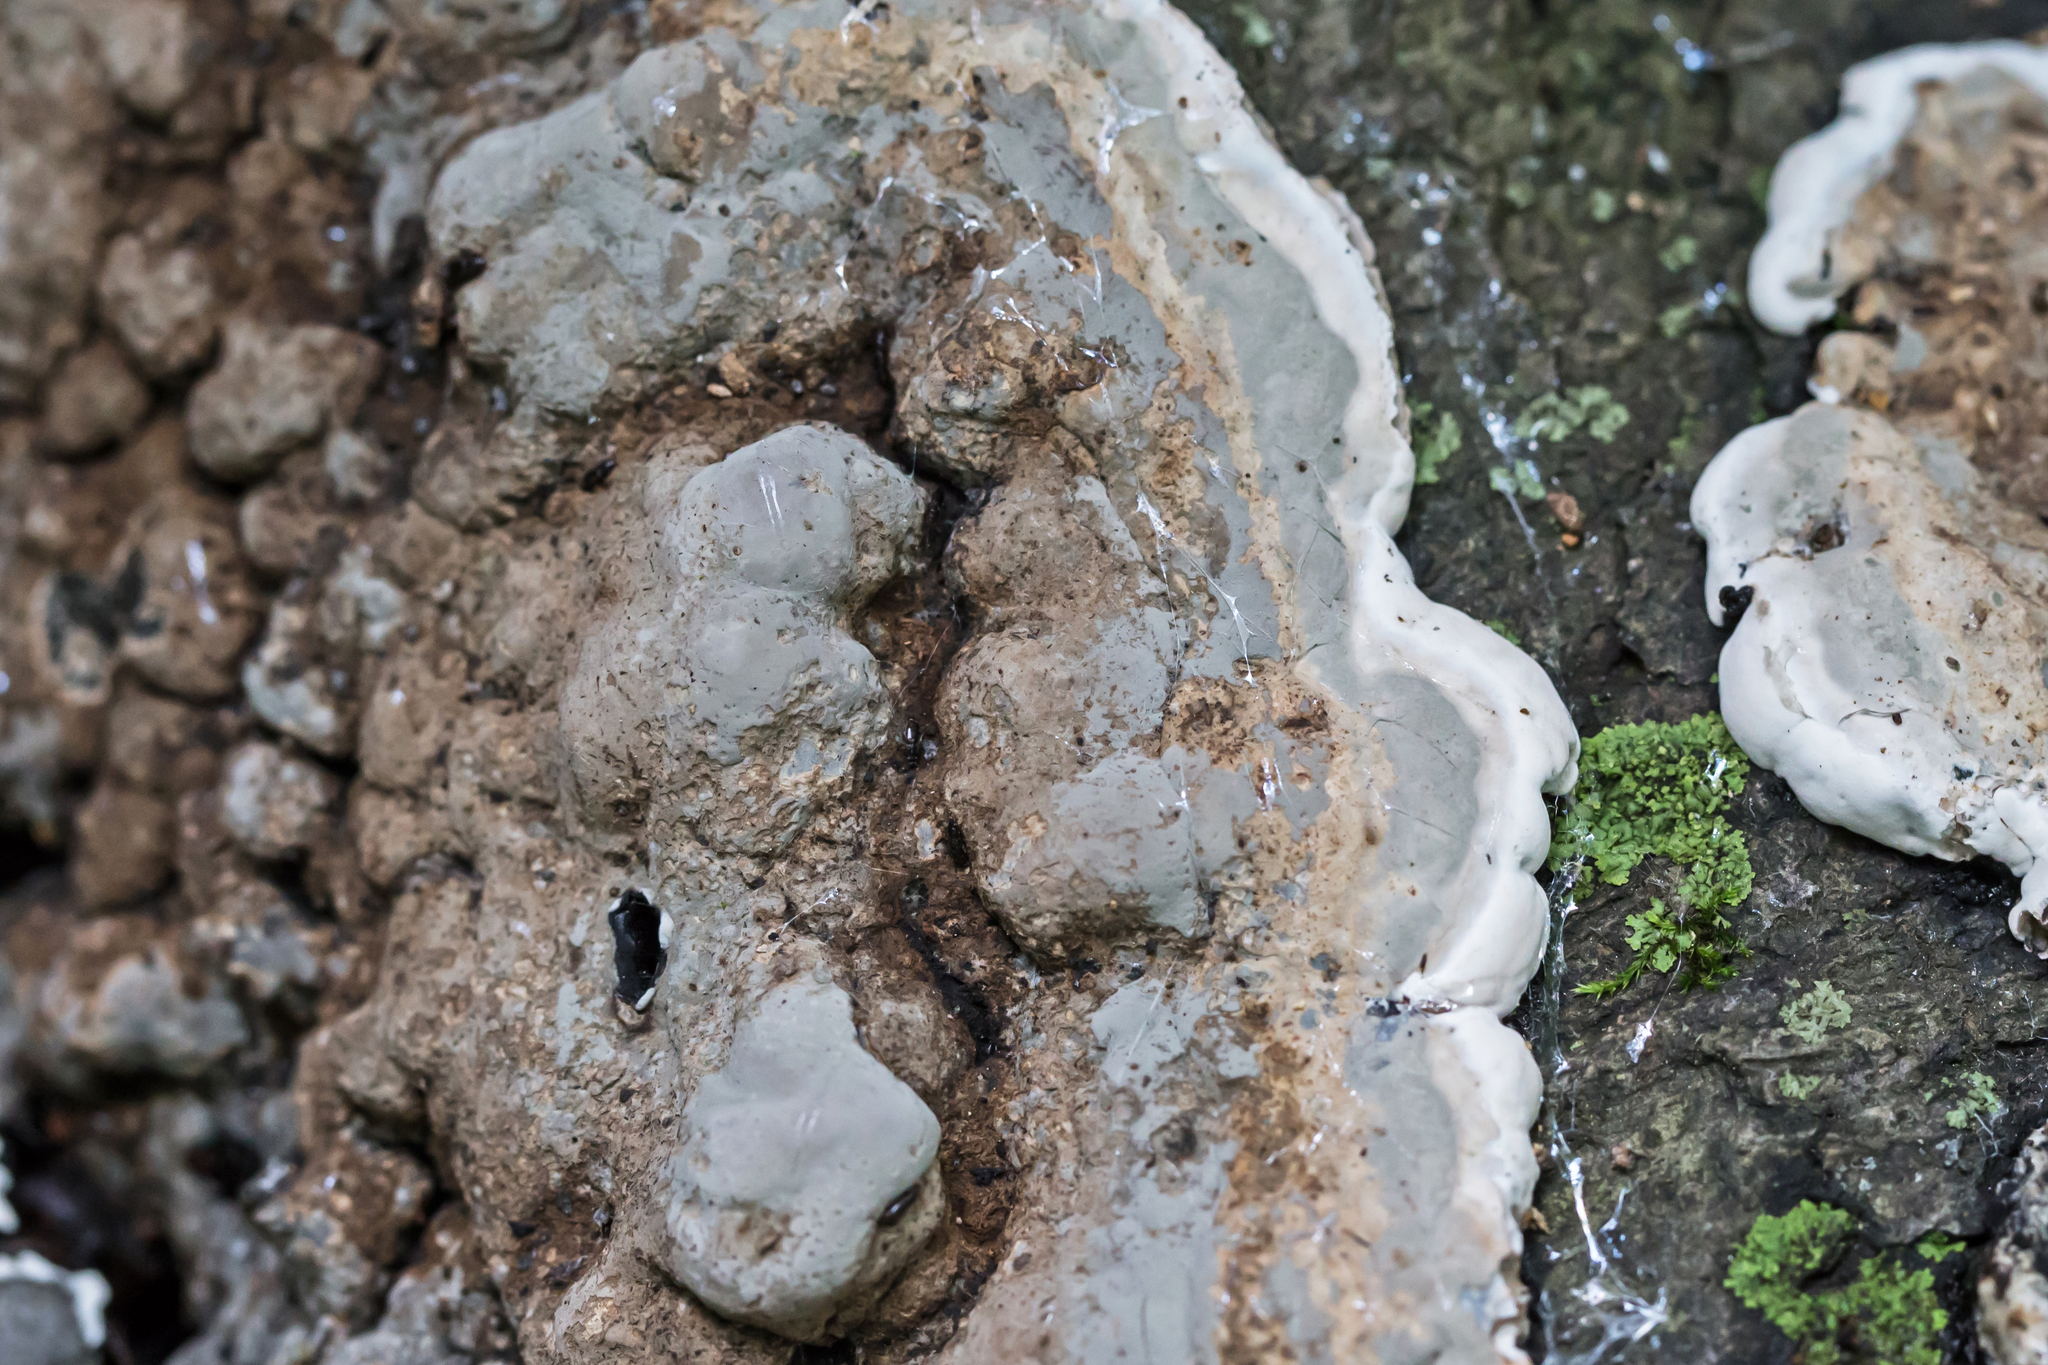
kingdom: Fungi
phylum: Ascomycota
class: Sordariomycetes
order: Xylariales
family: Xylariaceae
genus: Kretzschmaria
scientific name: Kretzschmaria deusta
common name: Brittle cinder
